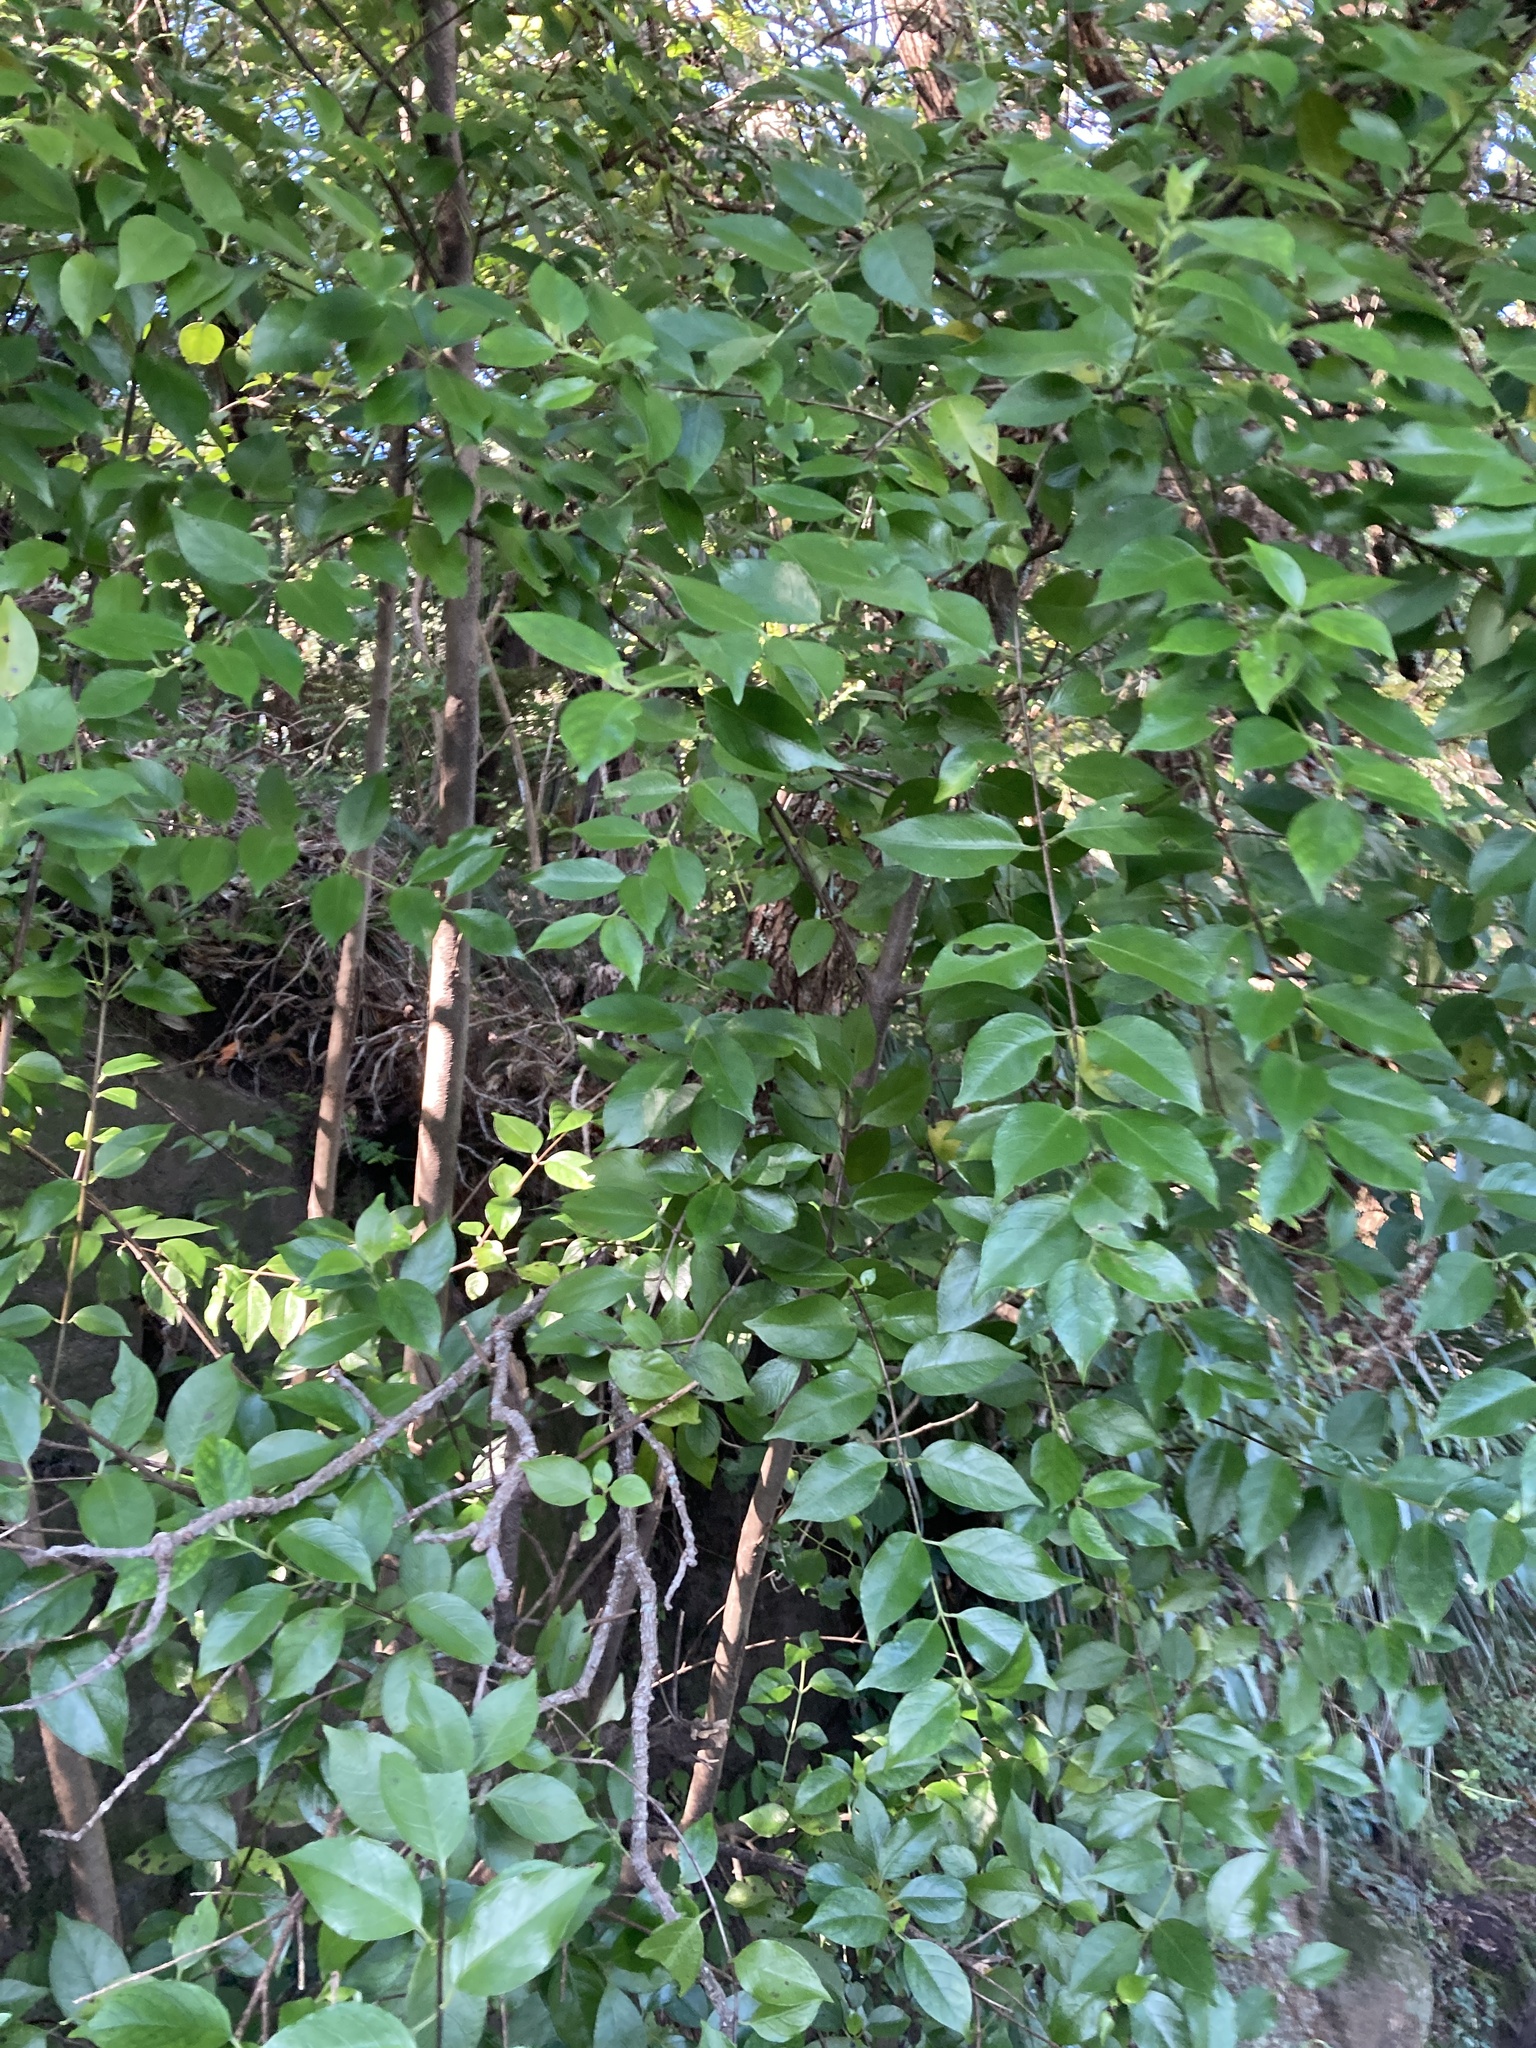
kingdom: Plantae
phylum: Tracheophyta
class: Magnoliopsida
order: Gentianales
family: Loganiaceae
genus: Geniostoma
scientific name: Geniostoma ligustrifolium
